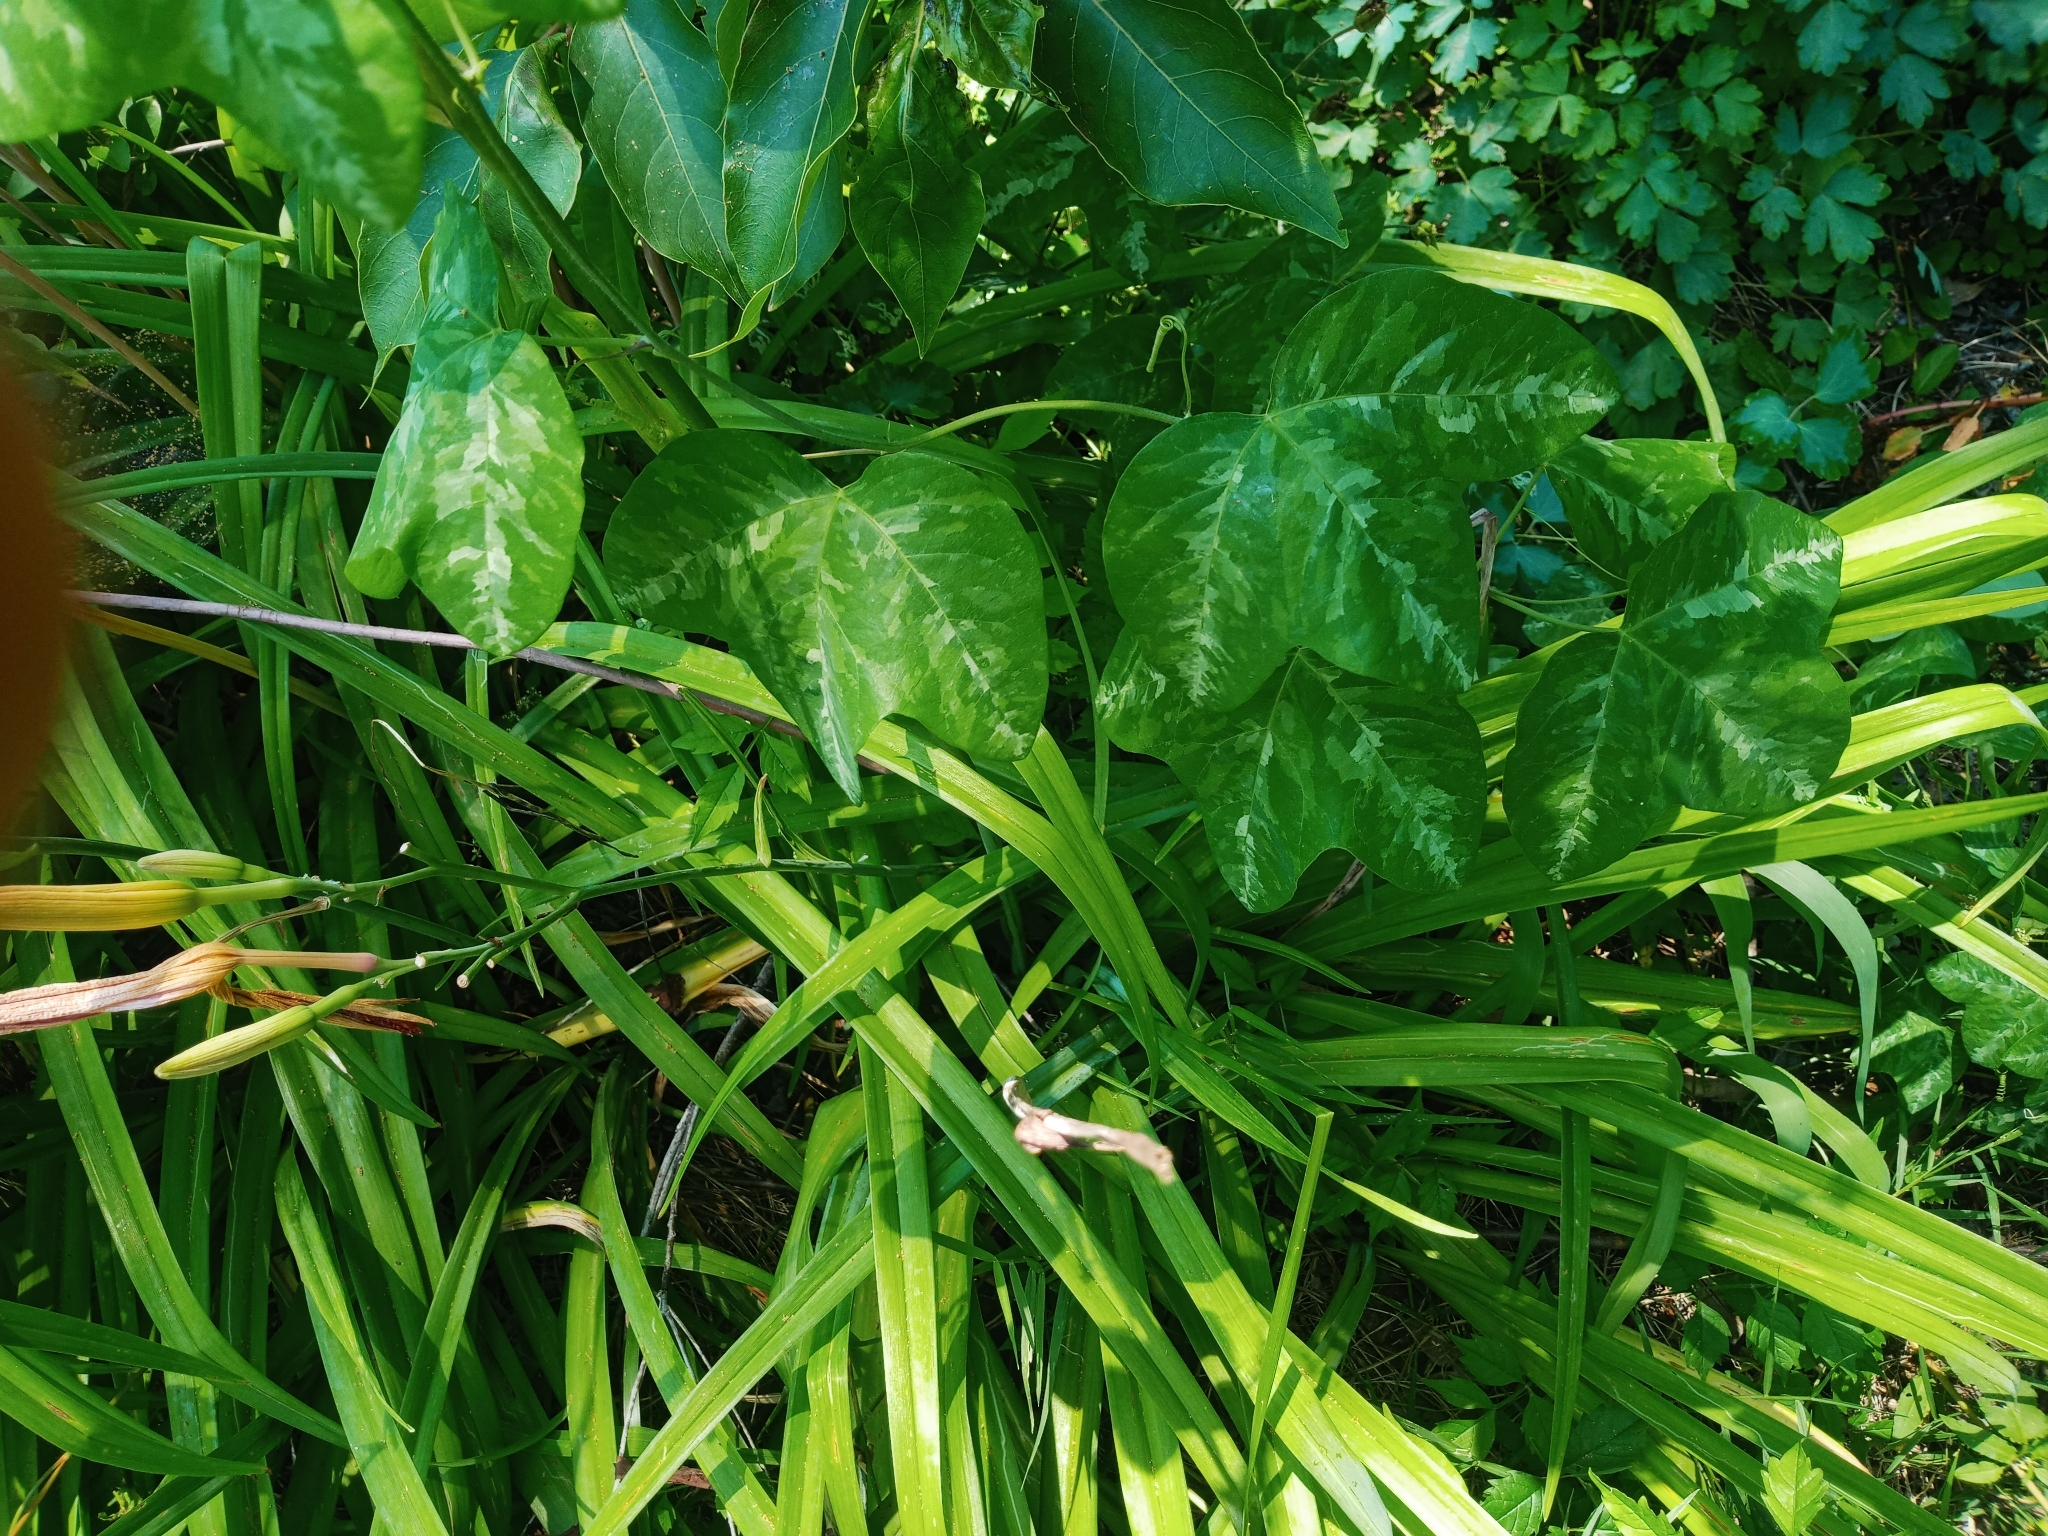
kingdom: Plantae
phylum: Tracheophyta
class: Magnoliopsida
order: Malpighiales
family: Passifloraceae
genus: Passiflora
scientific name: Passiflora lutea
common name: Yellow passionflower
